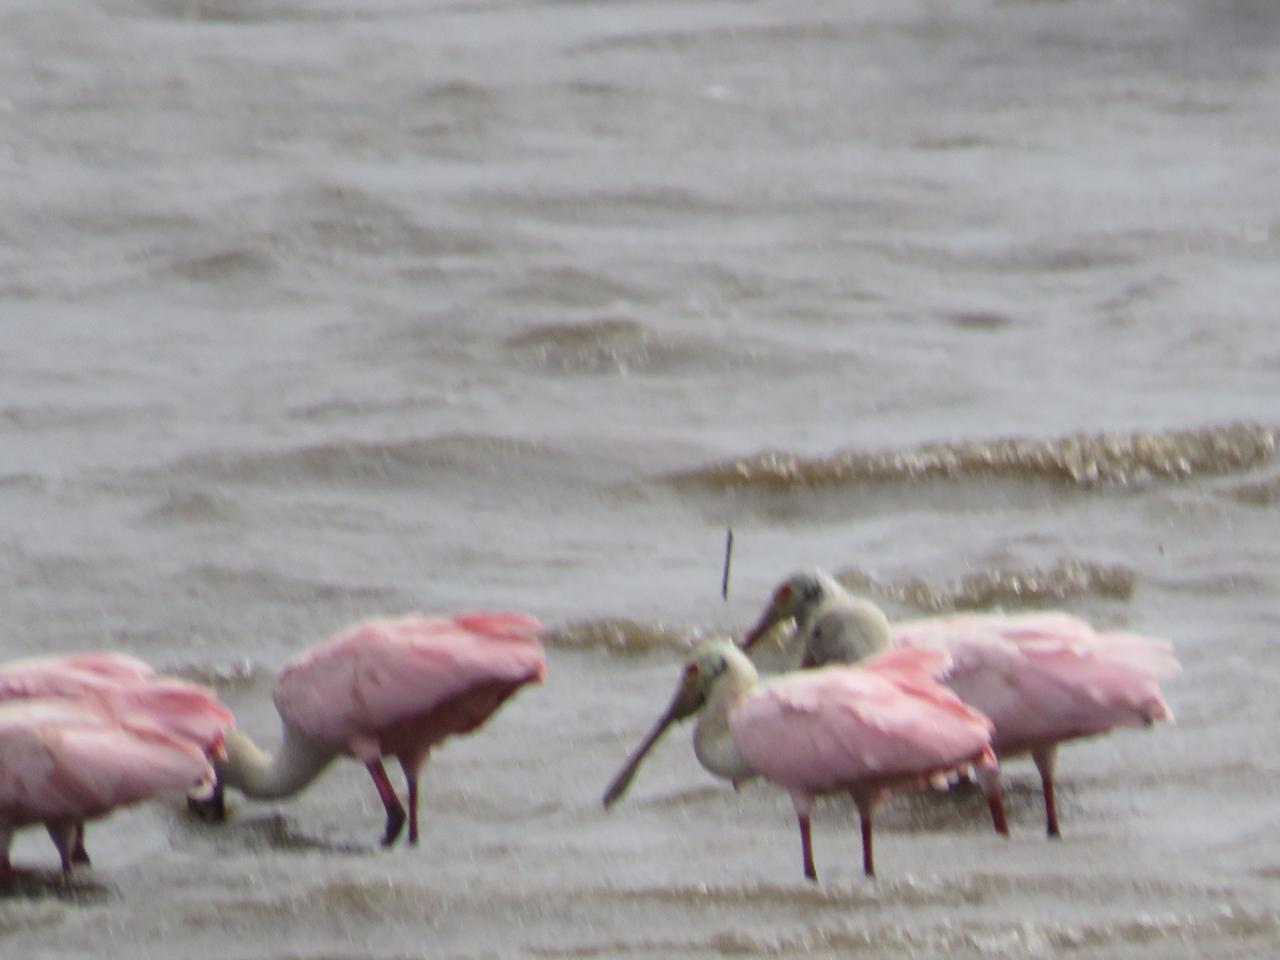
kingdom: Animalia
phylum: Chordata
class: Aves
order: Pelecaniformes
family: Threskiornithidae
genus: Platalea
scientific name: Platalea ajaja
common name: Roseate spoonbill
